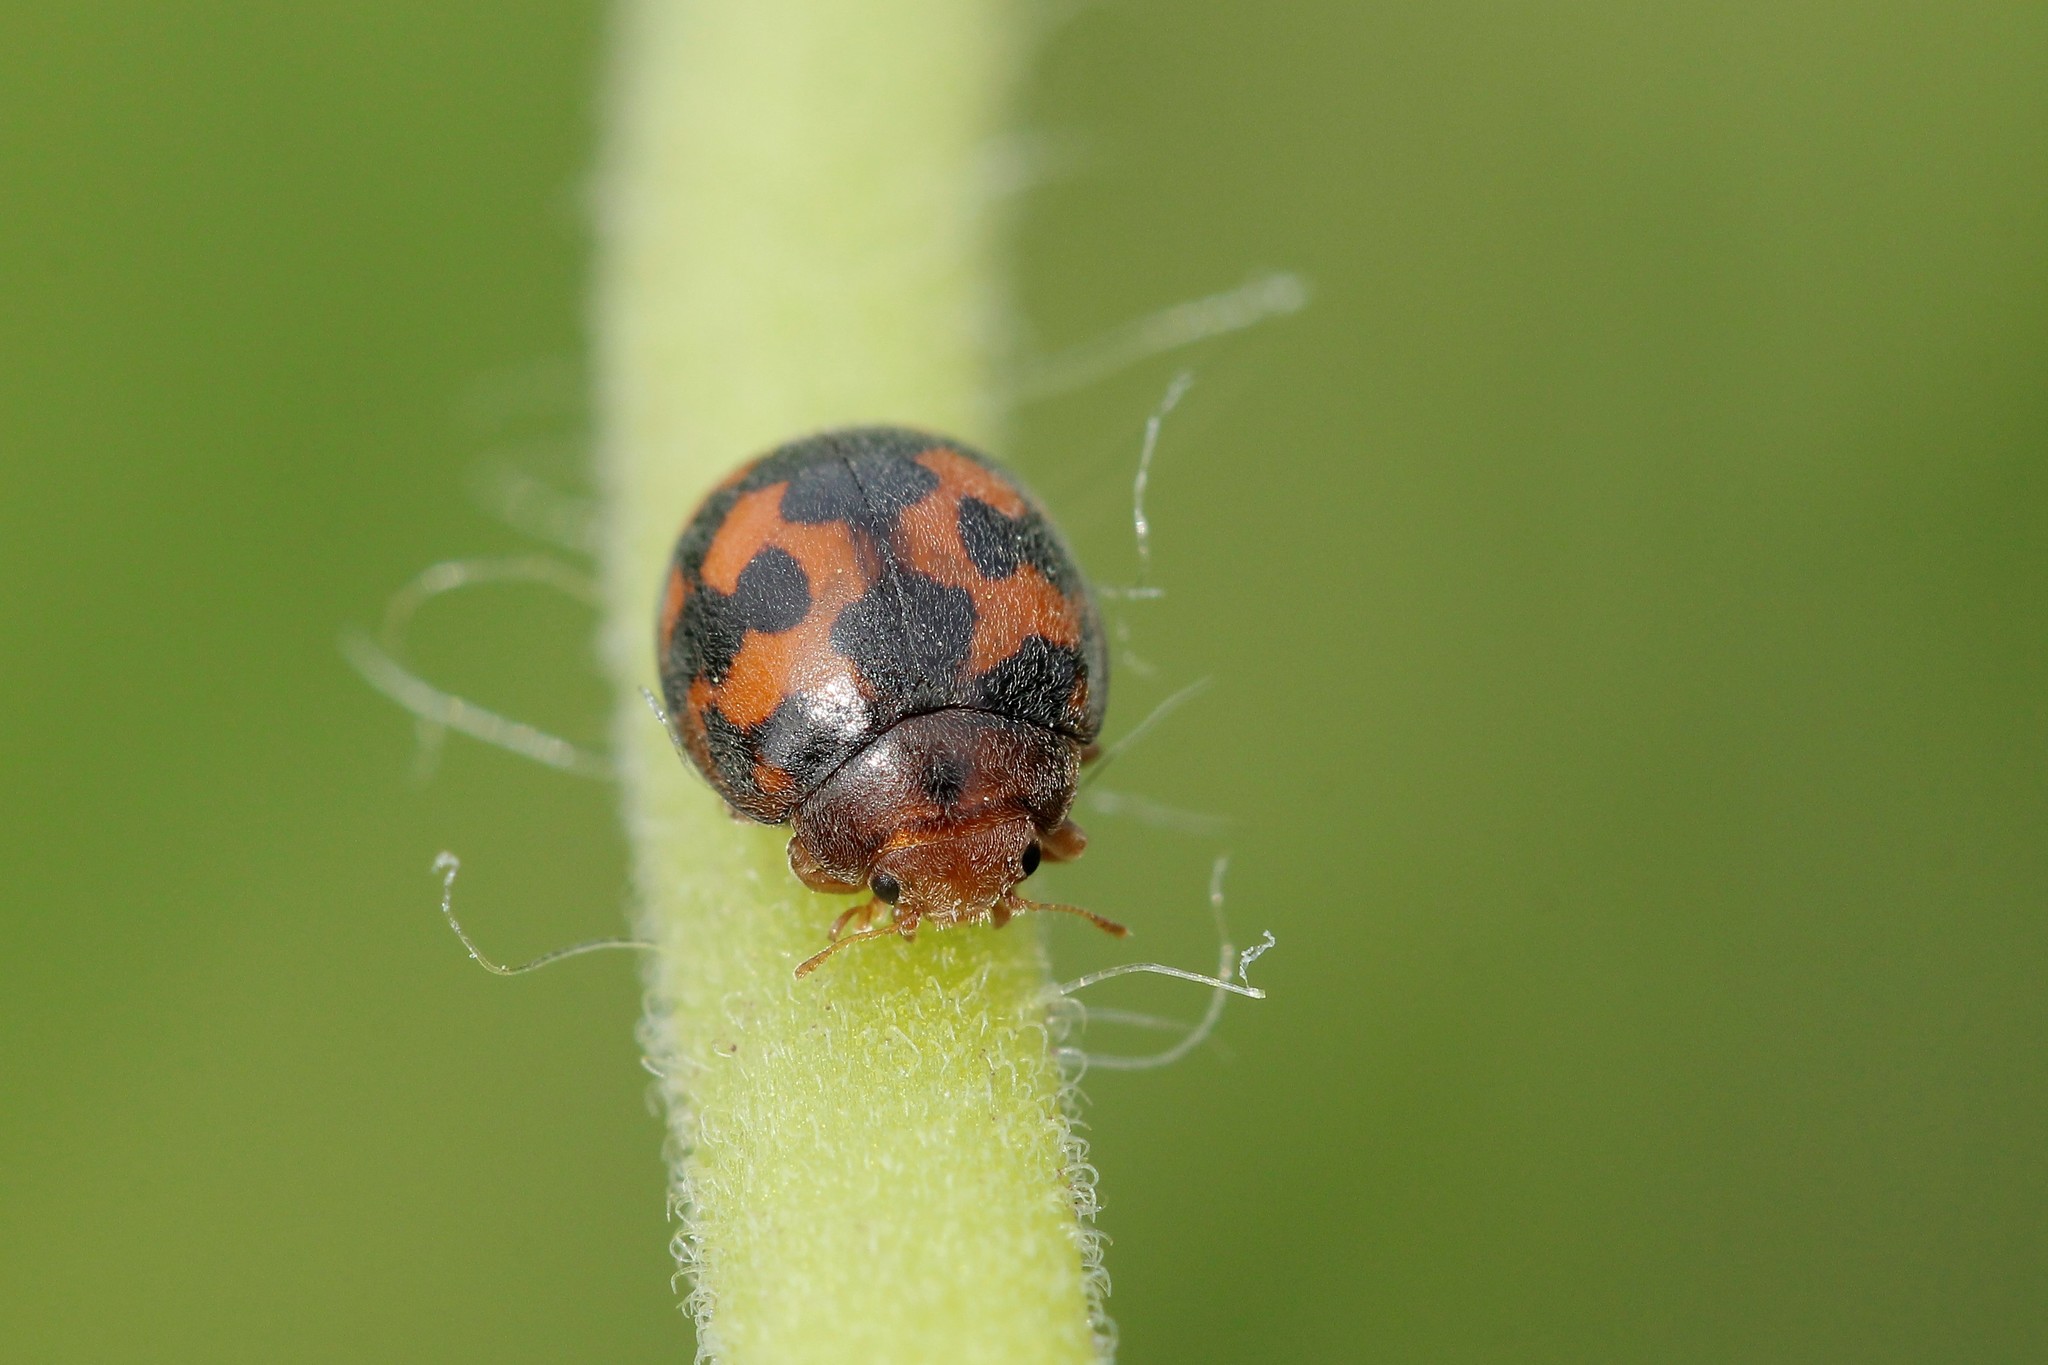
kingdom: Animalia
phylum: Arthropoda
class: Insecta
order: Coleoptera
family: Coccinellidae
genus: Subcoccinella
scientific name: Subcoccinella vigintiquatuorpunctata
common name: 24-spot ladybird
